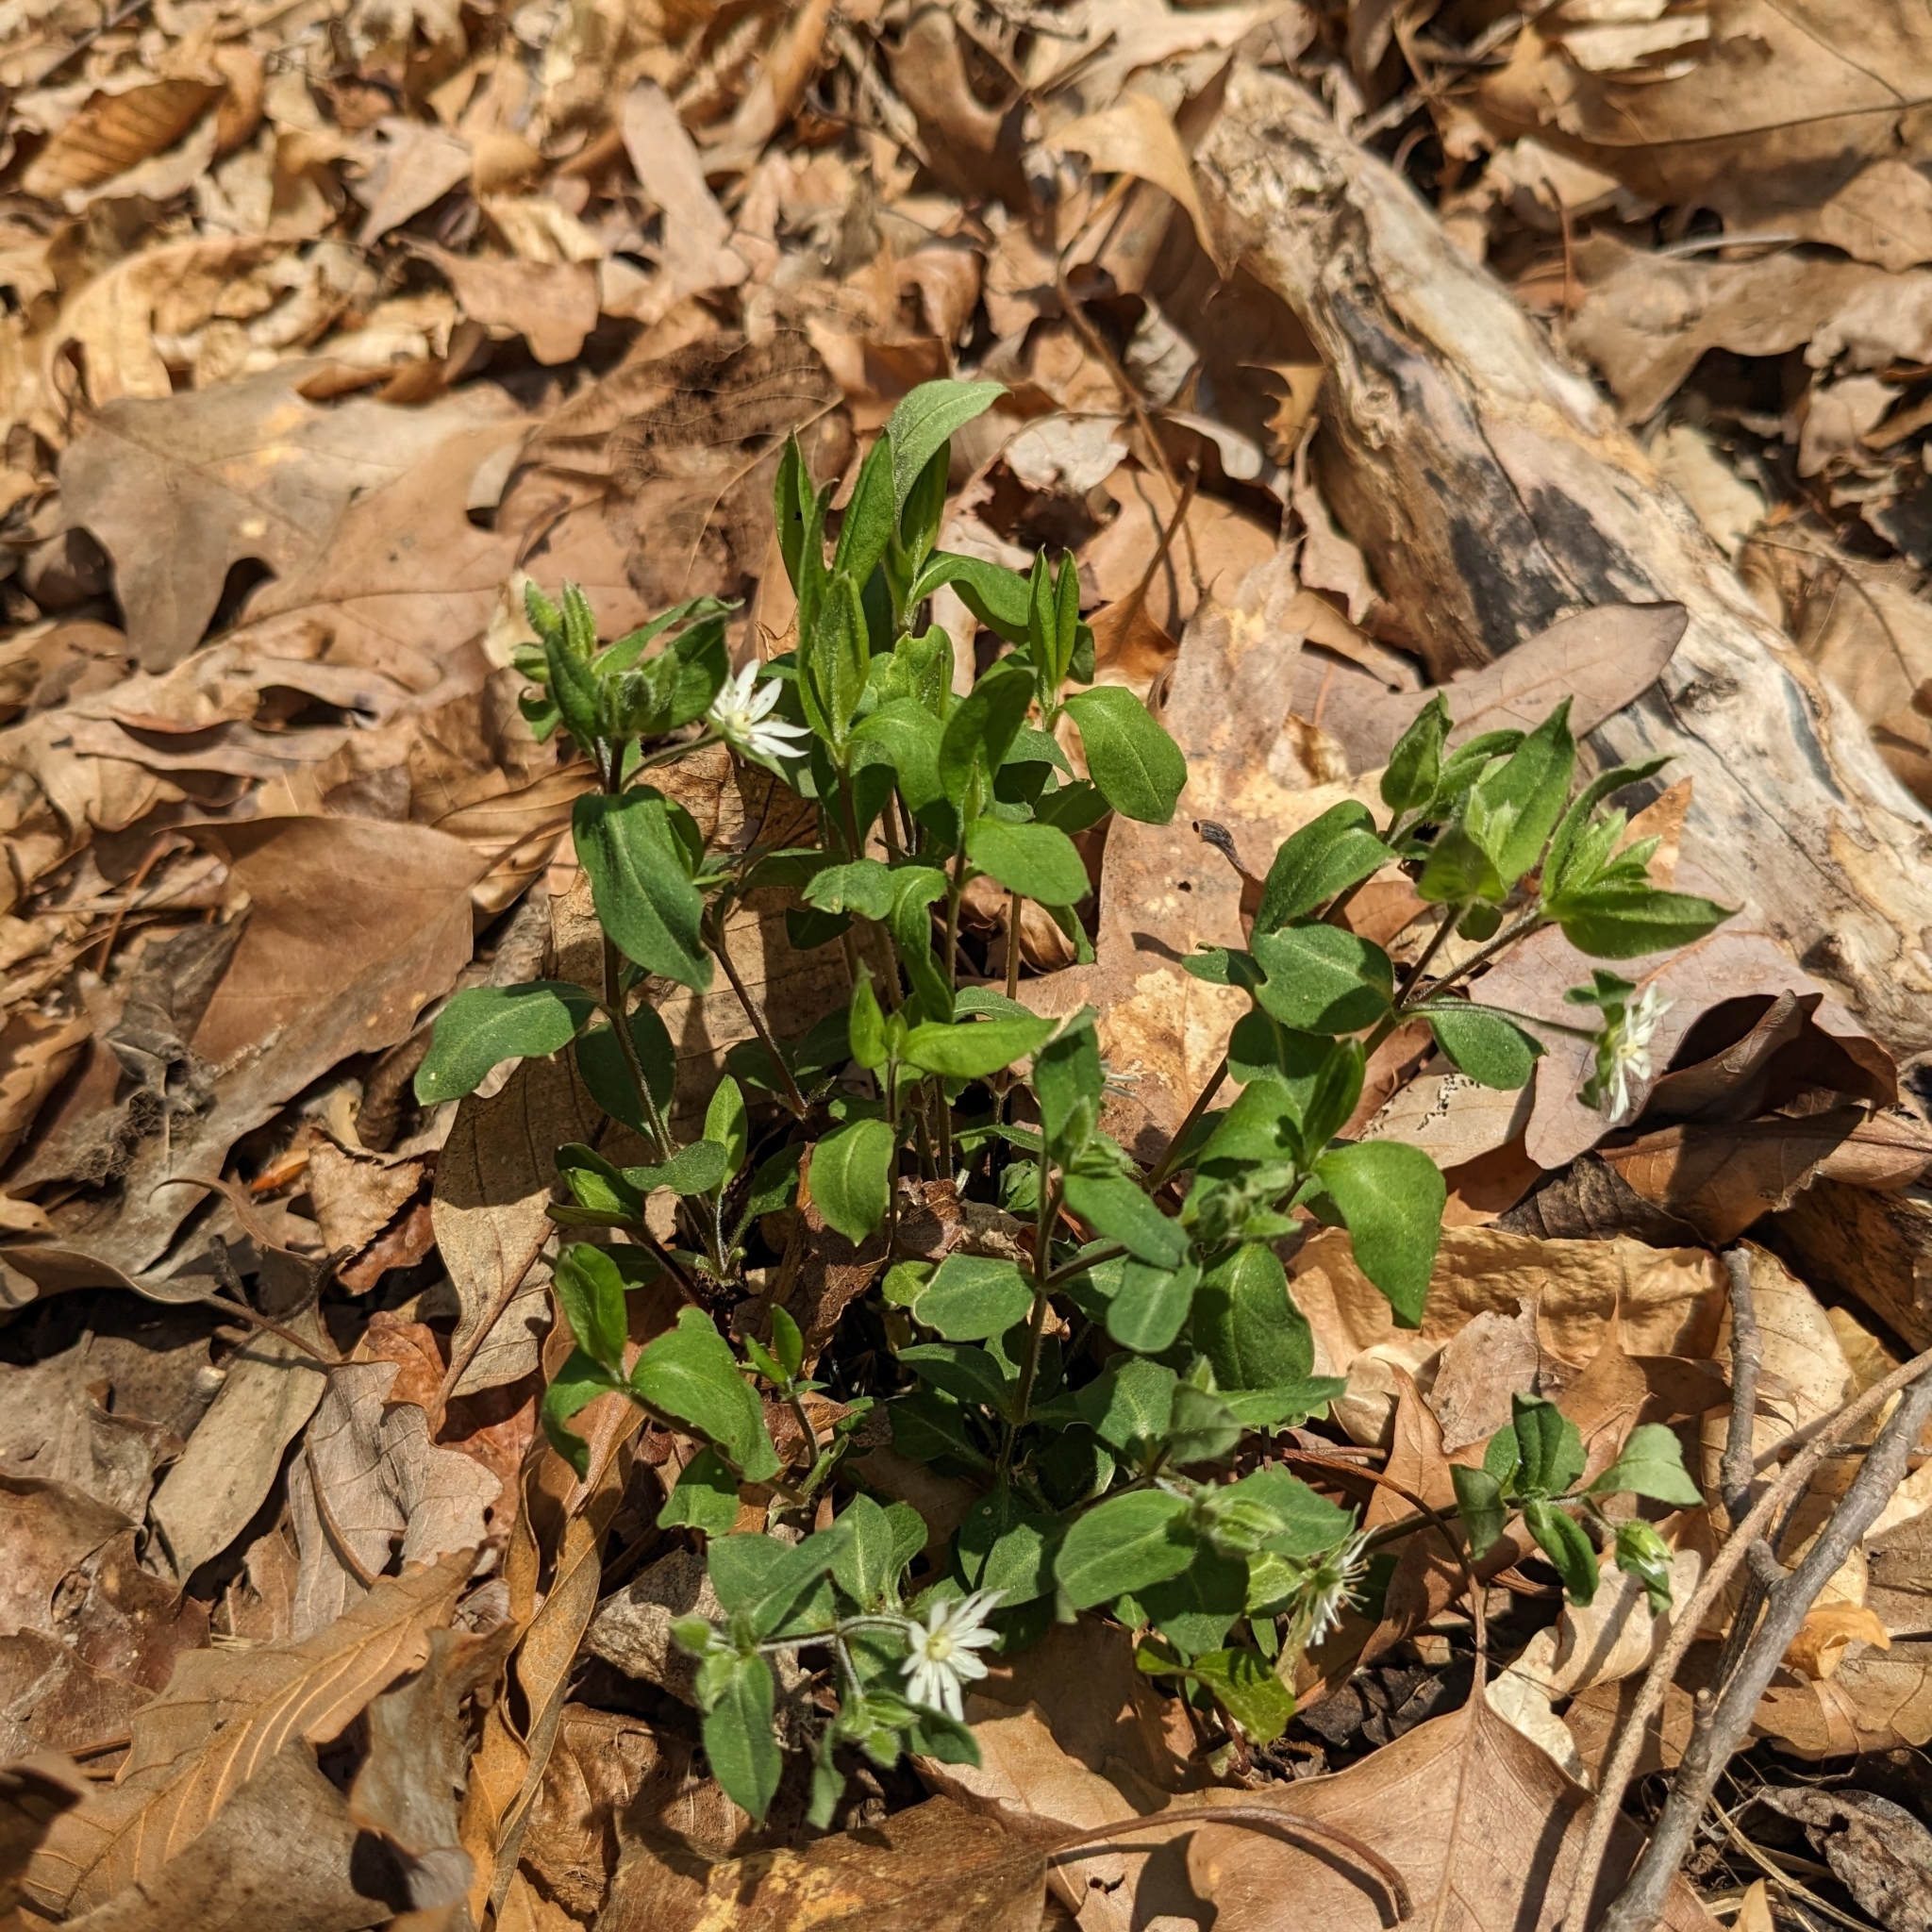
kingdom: Plantae
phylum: Tracheophyta
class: Magnoliopsida
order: Caryophyllales
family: Caryophyllaceae
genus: Stellaria
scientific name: Stellaria pubera
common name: Star chickweed
